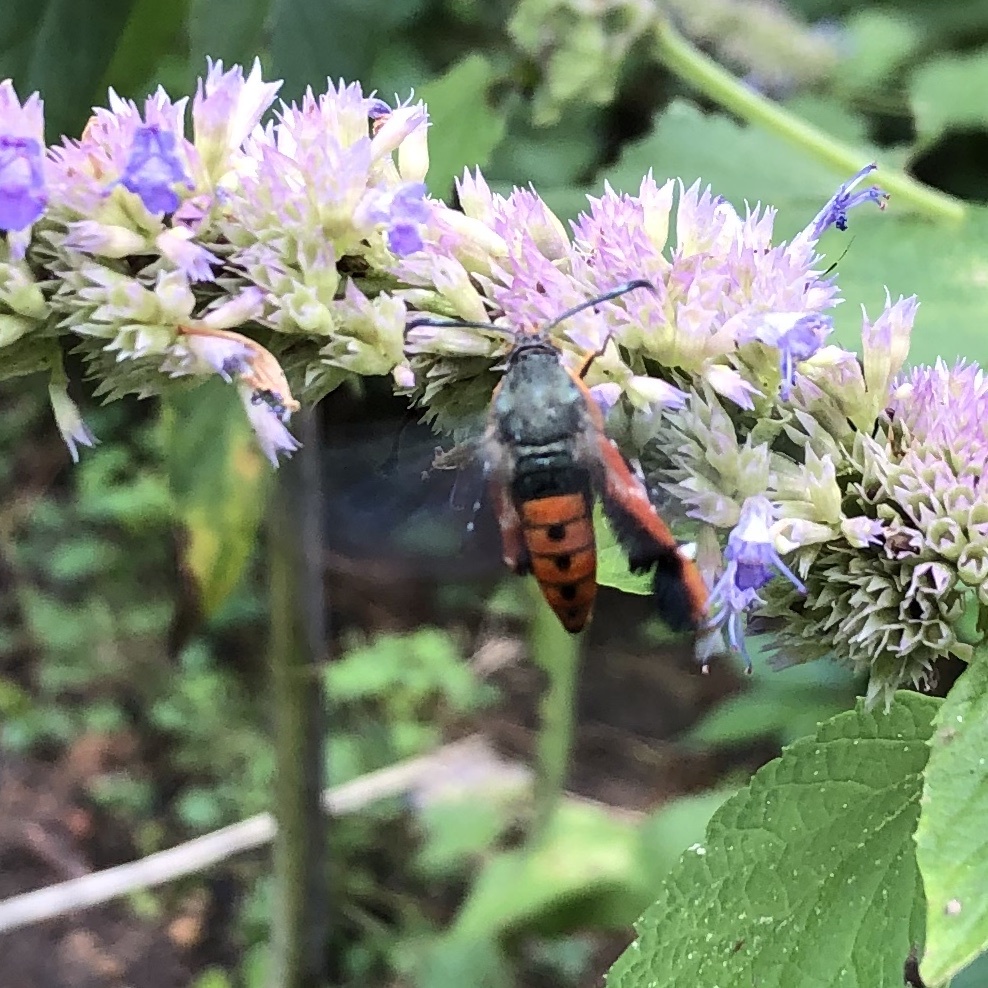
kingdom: Animalia
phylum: Arthropoda
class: Insecta
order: Lepidoptera
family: Sesiidae
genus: Eichlinia
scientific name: Eichlinia cucurbitae
